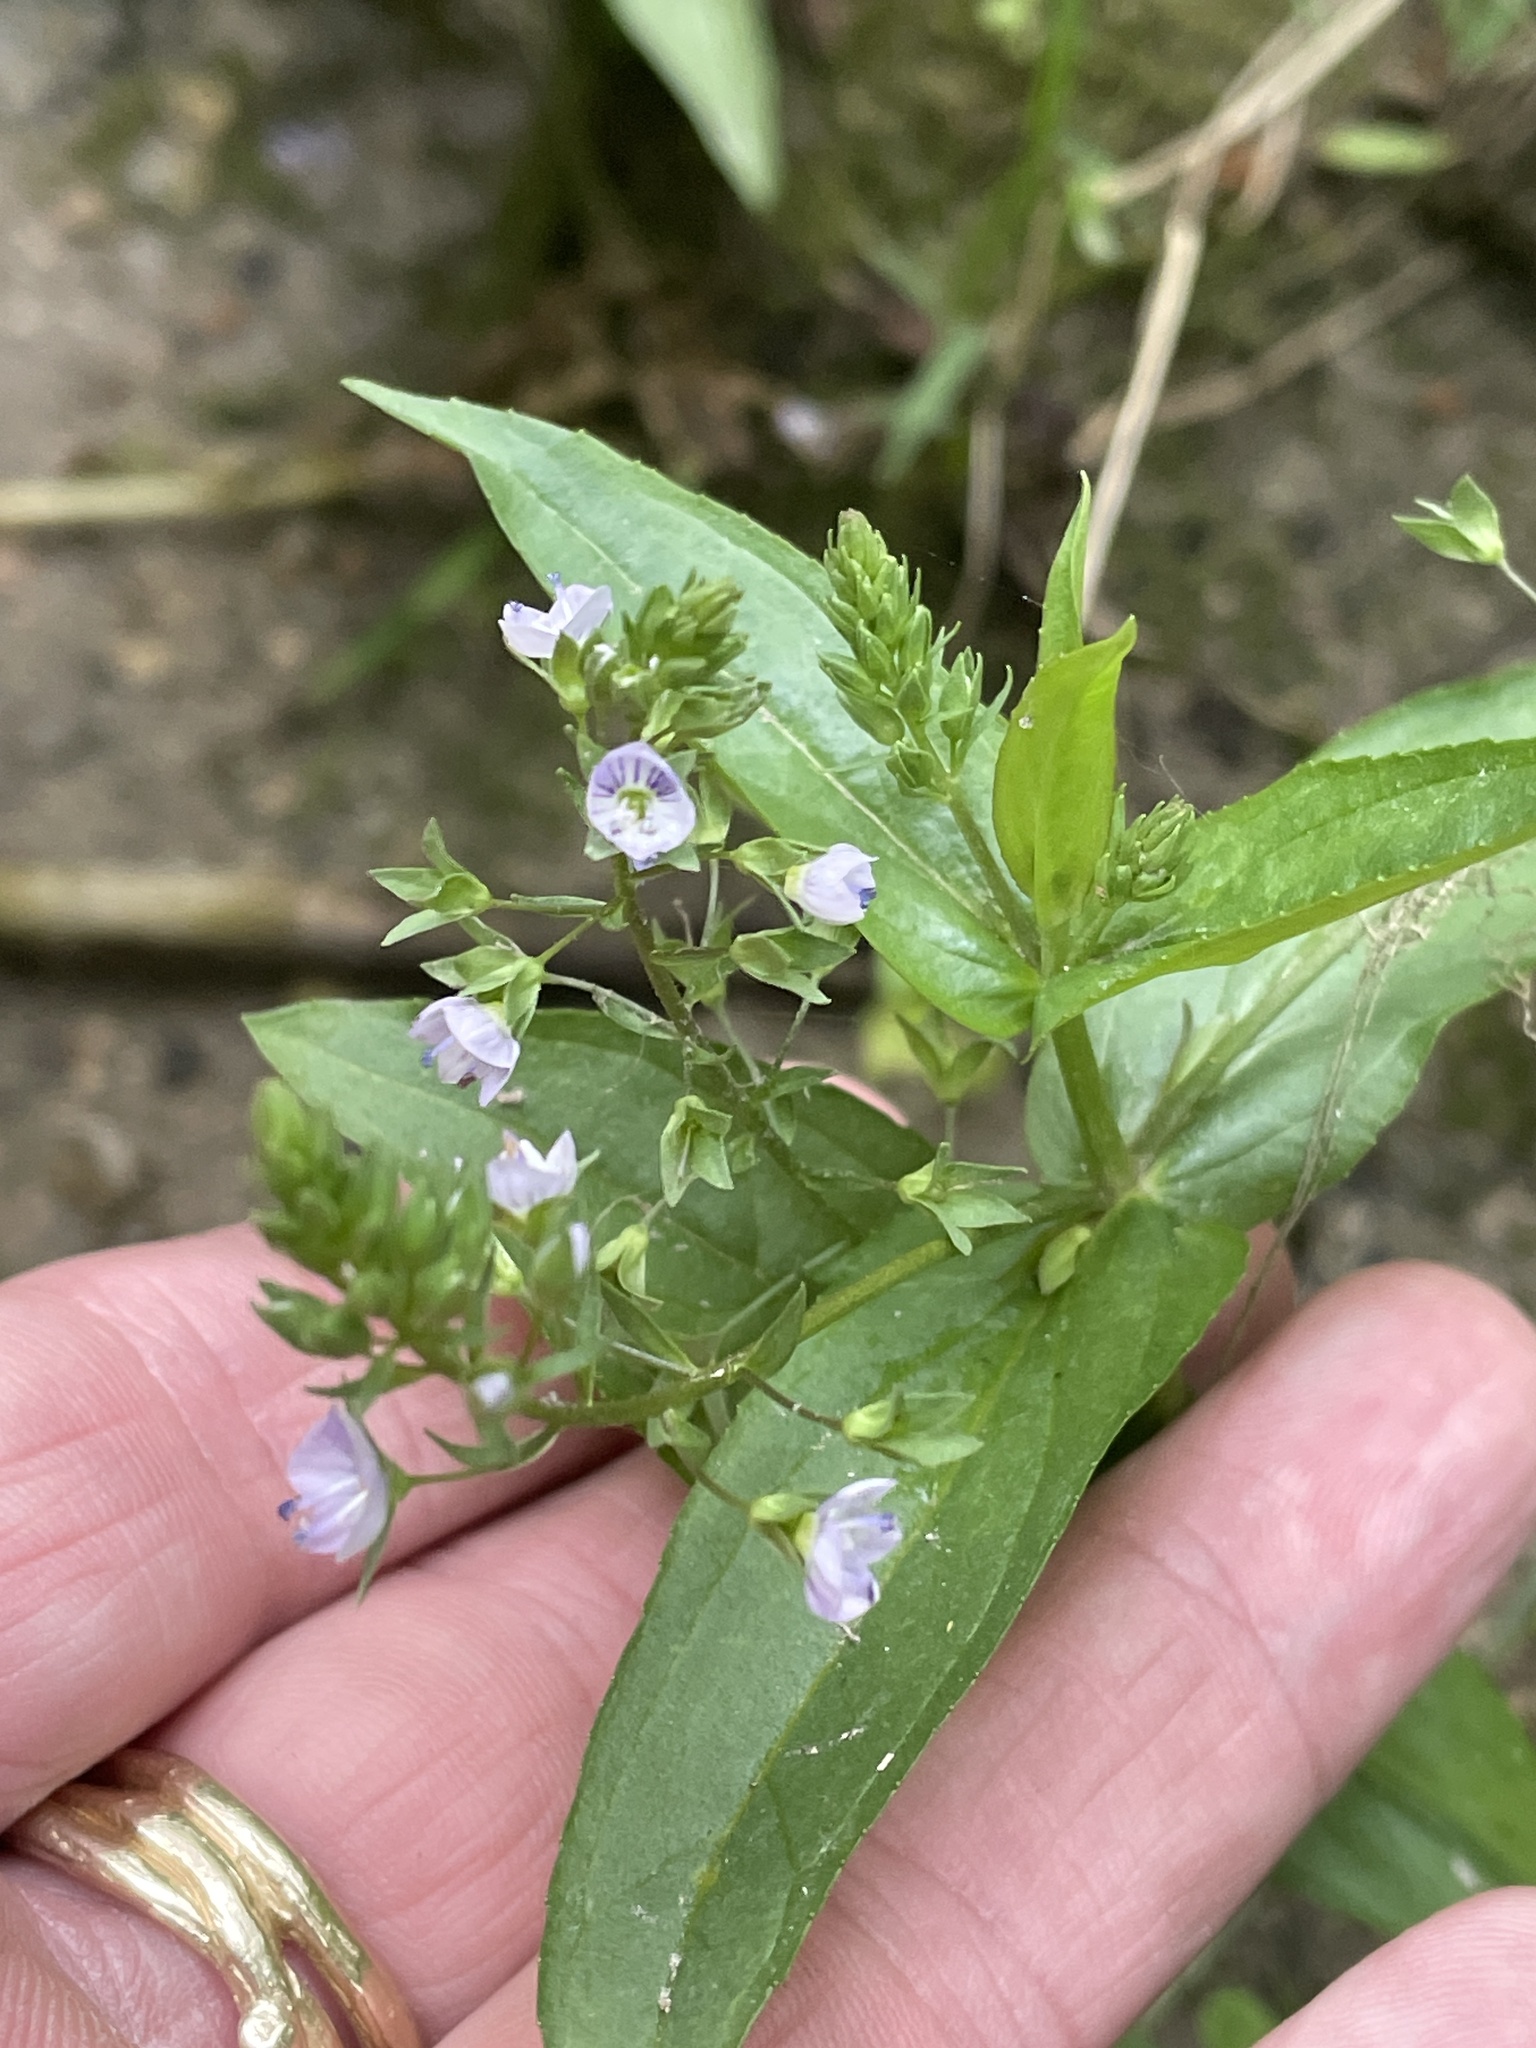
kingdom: Plantae
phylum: Tracheophyta
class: Magnoliopsida
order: Lamiales
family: Plantaginaceae
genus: Veronica
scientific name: Veronica anagallis-aquatica
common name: Water speedwell
